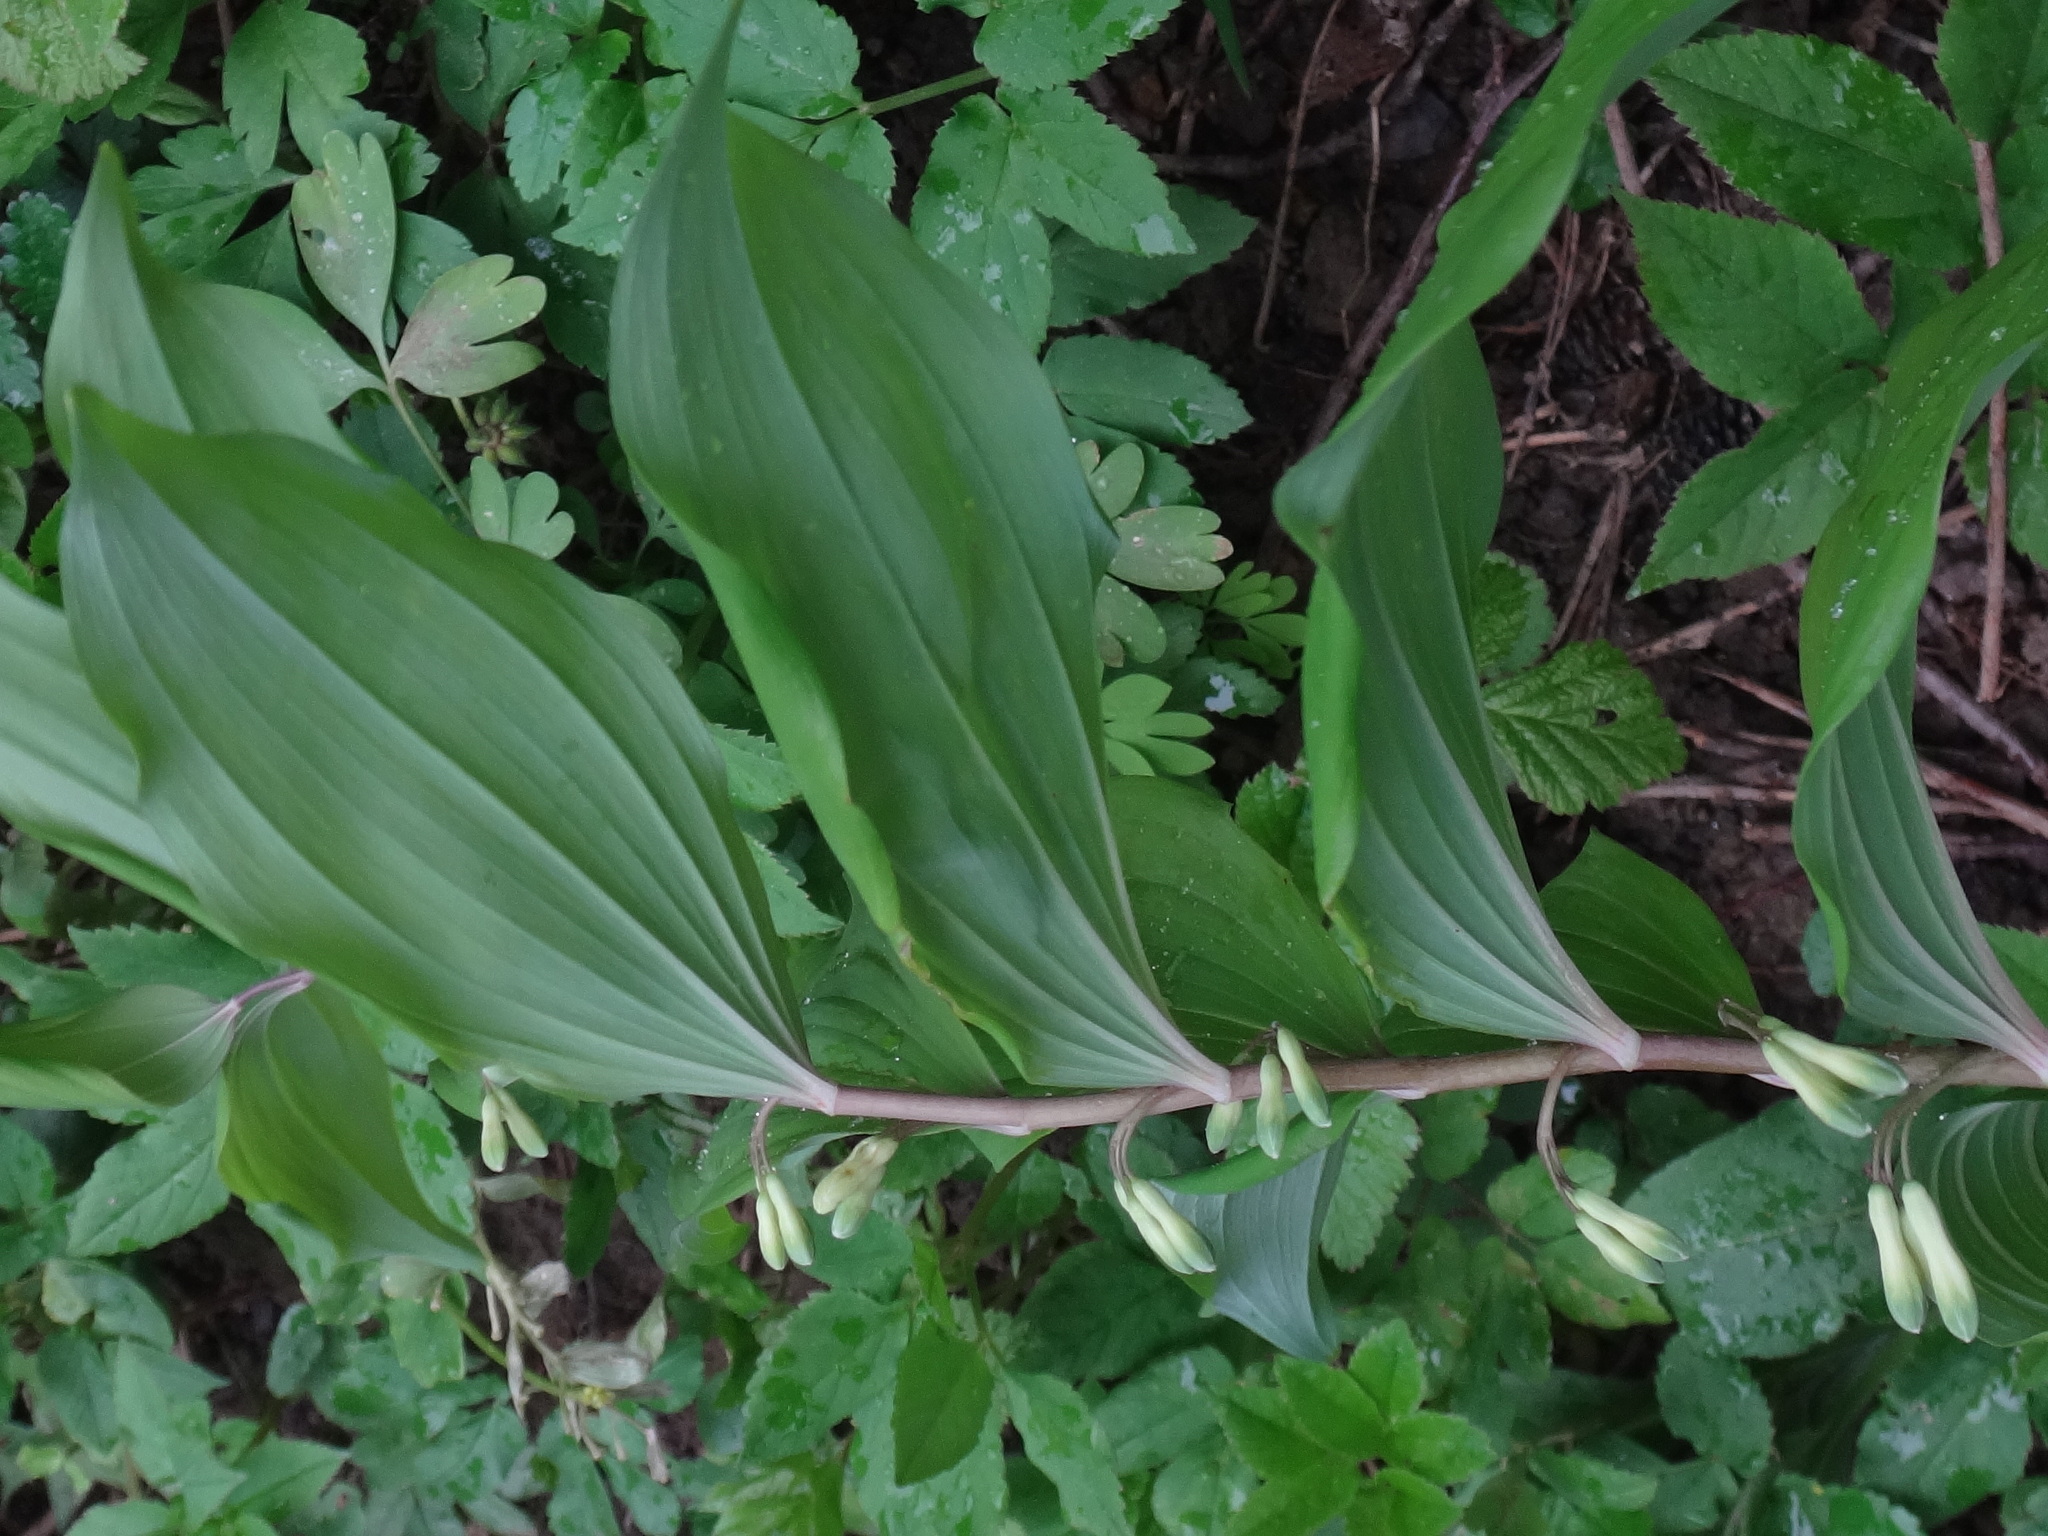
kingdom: Plantae
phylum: Tracheophyta
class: Liliopsida
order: Asparagales
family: Asparagaceae
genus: Polygonatum
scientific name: Polygonatum multiflorum
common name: Solomon's-seal
